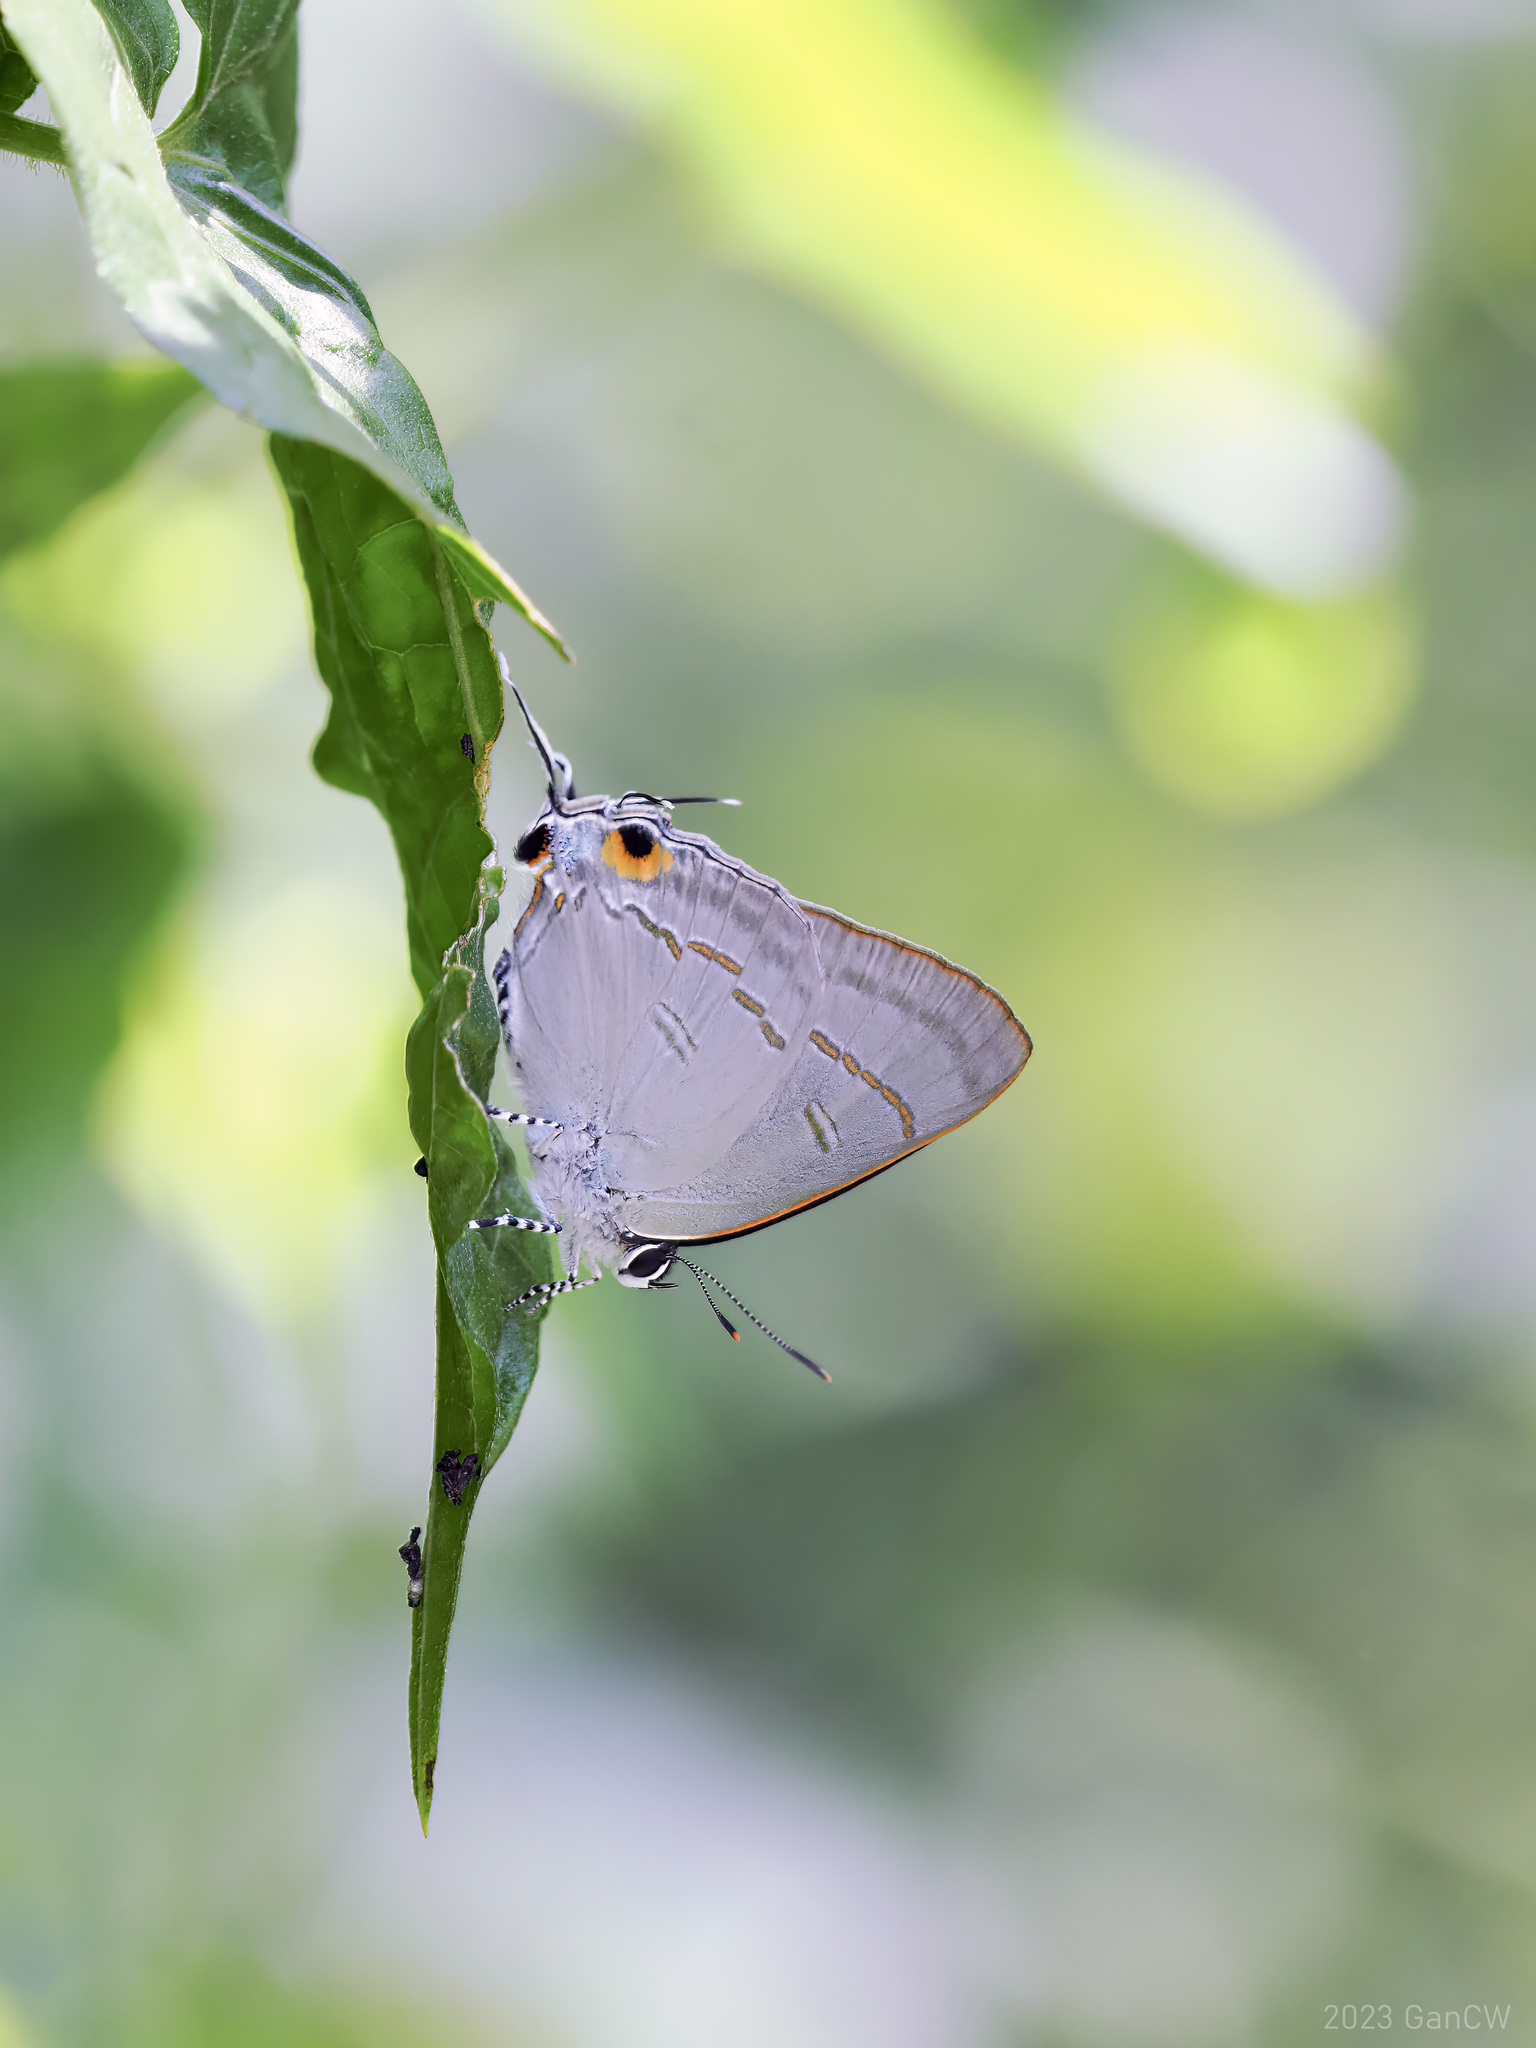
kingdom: Animalia
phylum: Arthropoda
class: Insecta
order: Lepidoptera
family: Lycaenidae
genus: Hypolycaena
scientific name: Hypolycaena erylus
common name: Common tit
